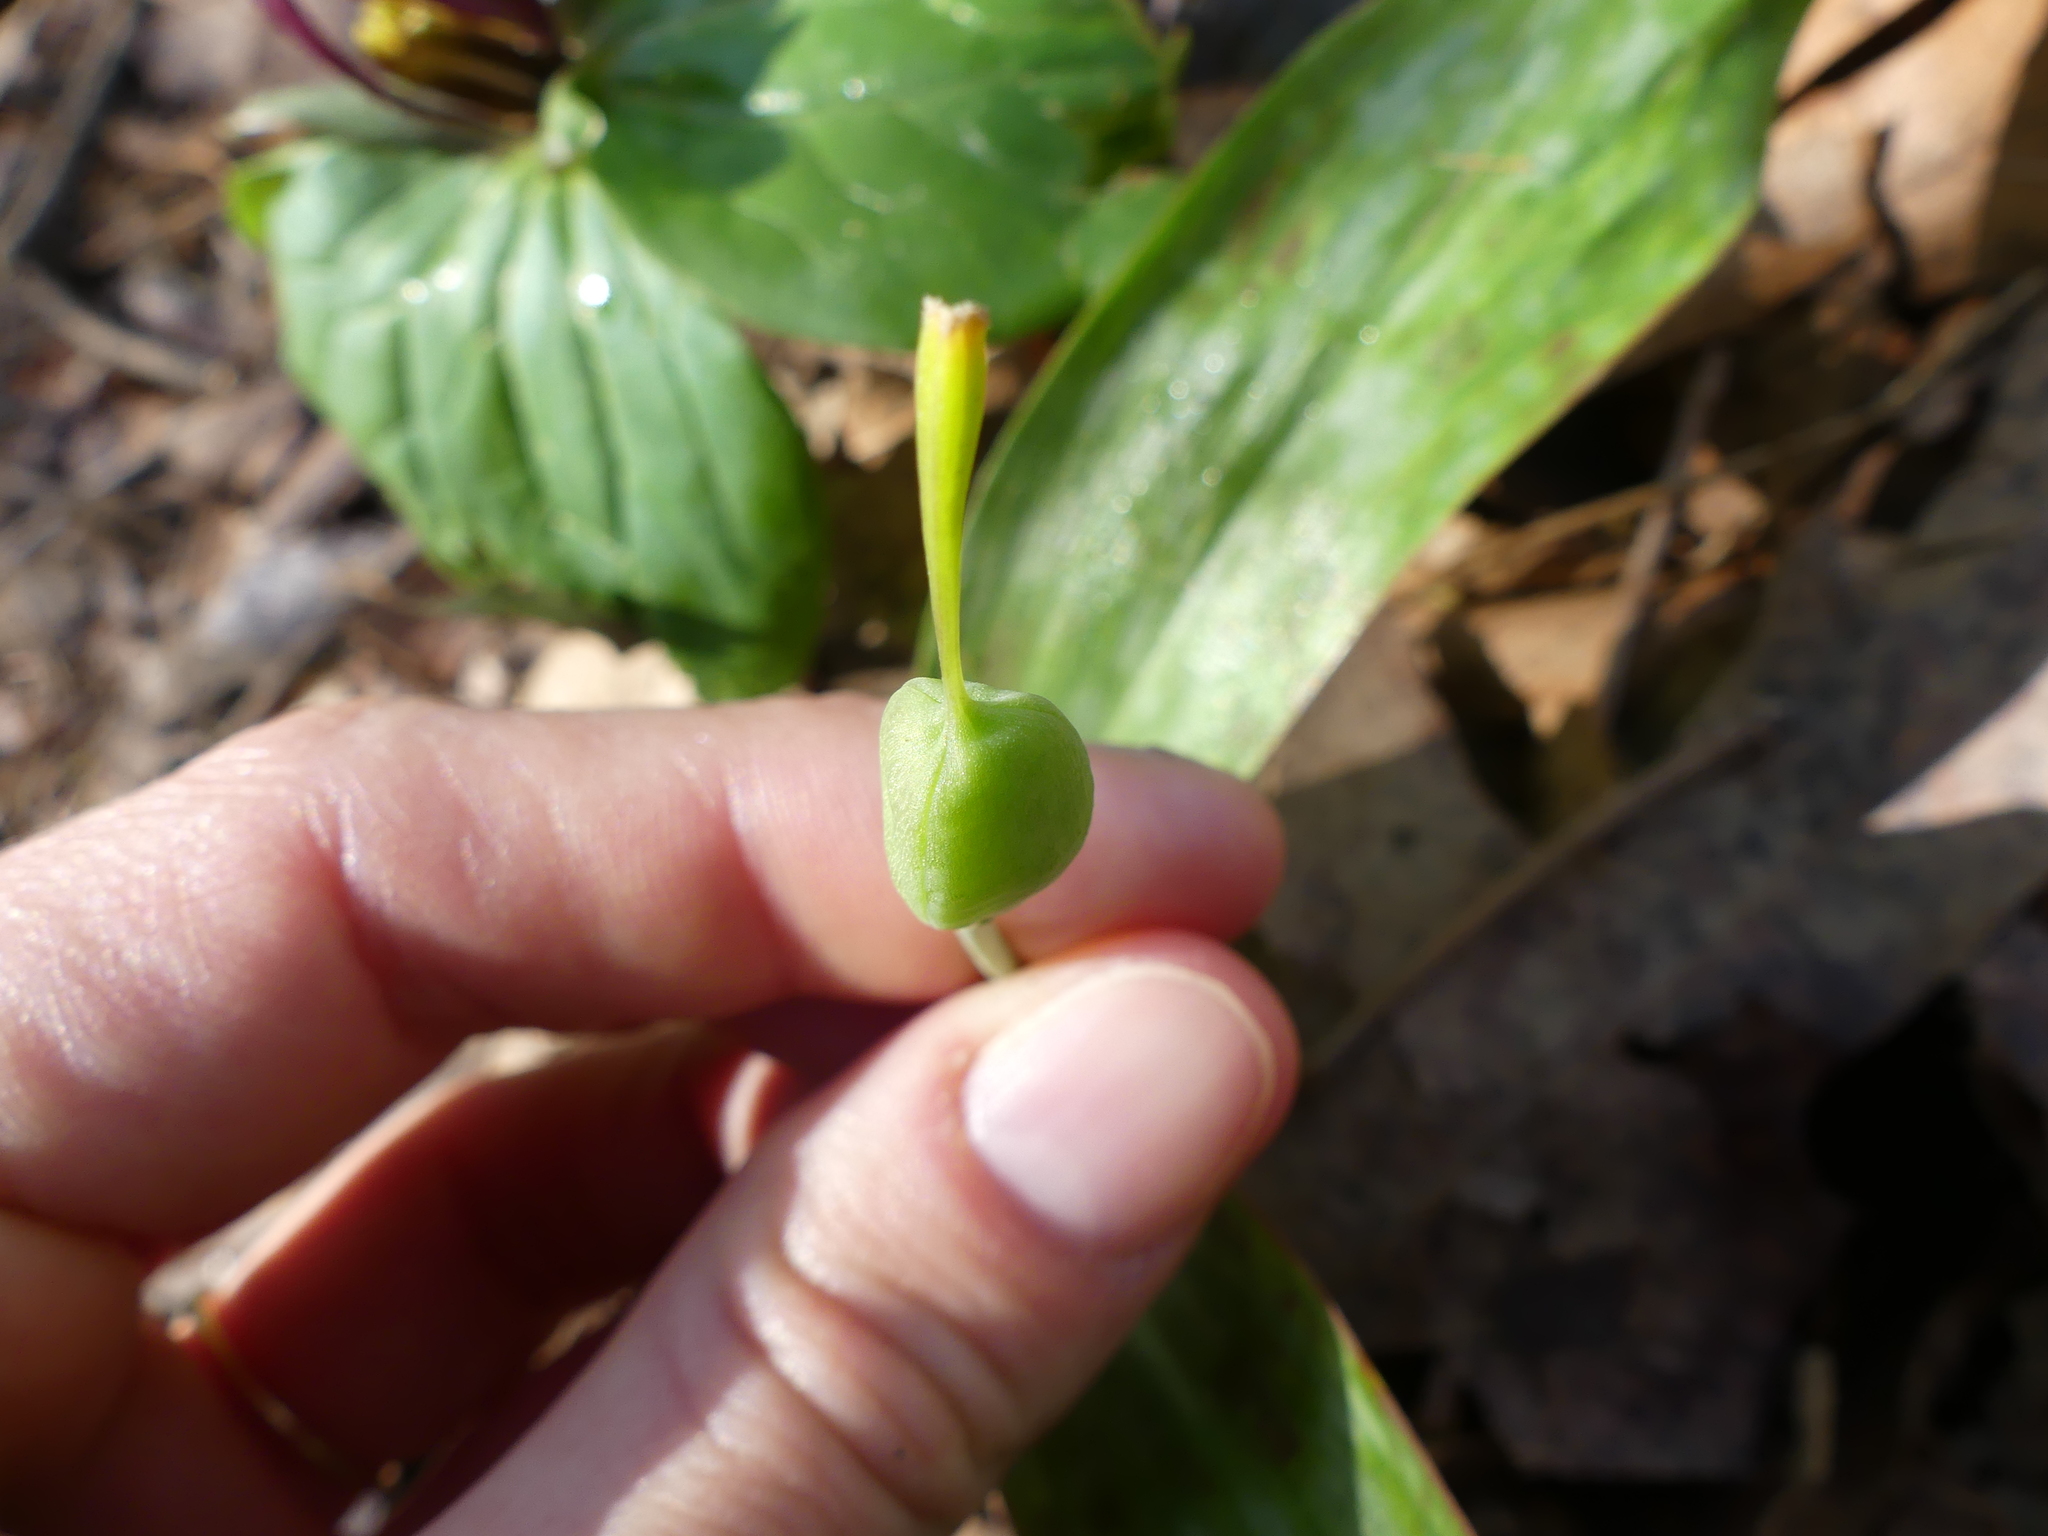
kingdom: Plantae
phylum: Tracheophyta
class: Liliopsida
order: Liliales
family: Liliaceae
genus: Erythronium
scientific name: Erythronium americanum
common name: Yellow adder's-tongue
